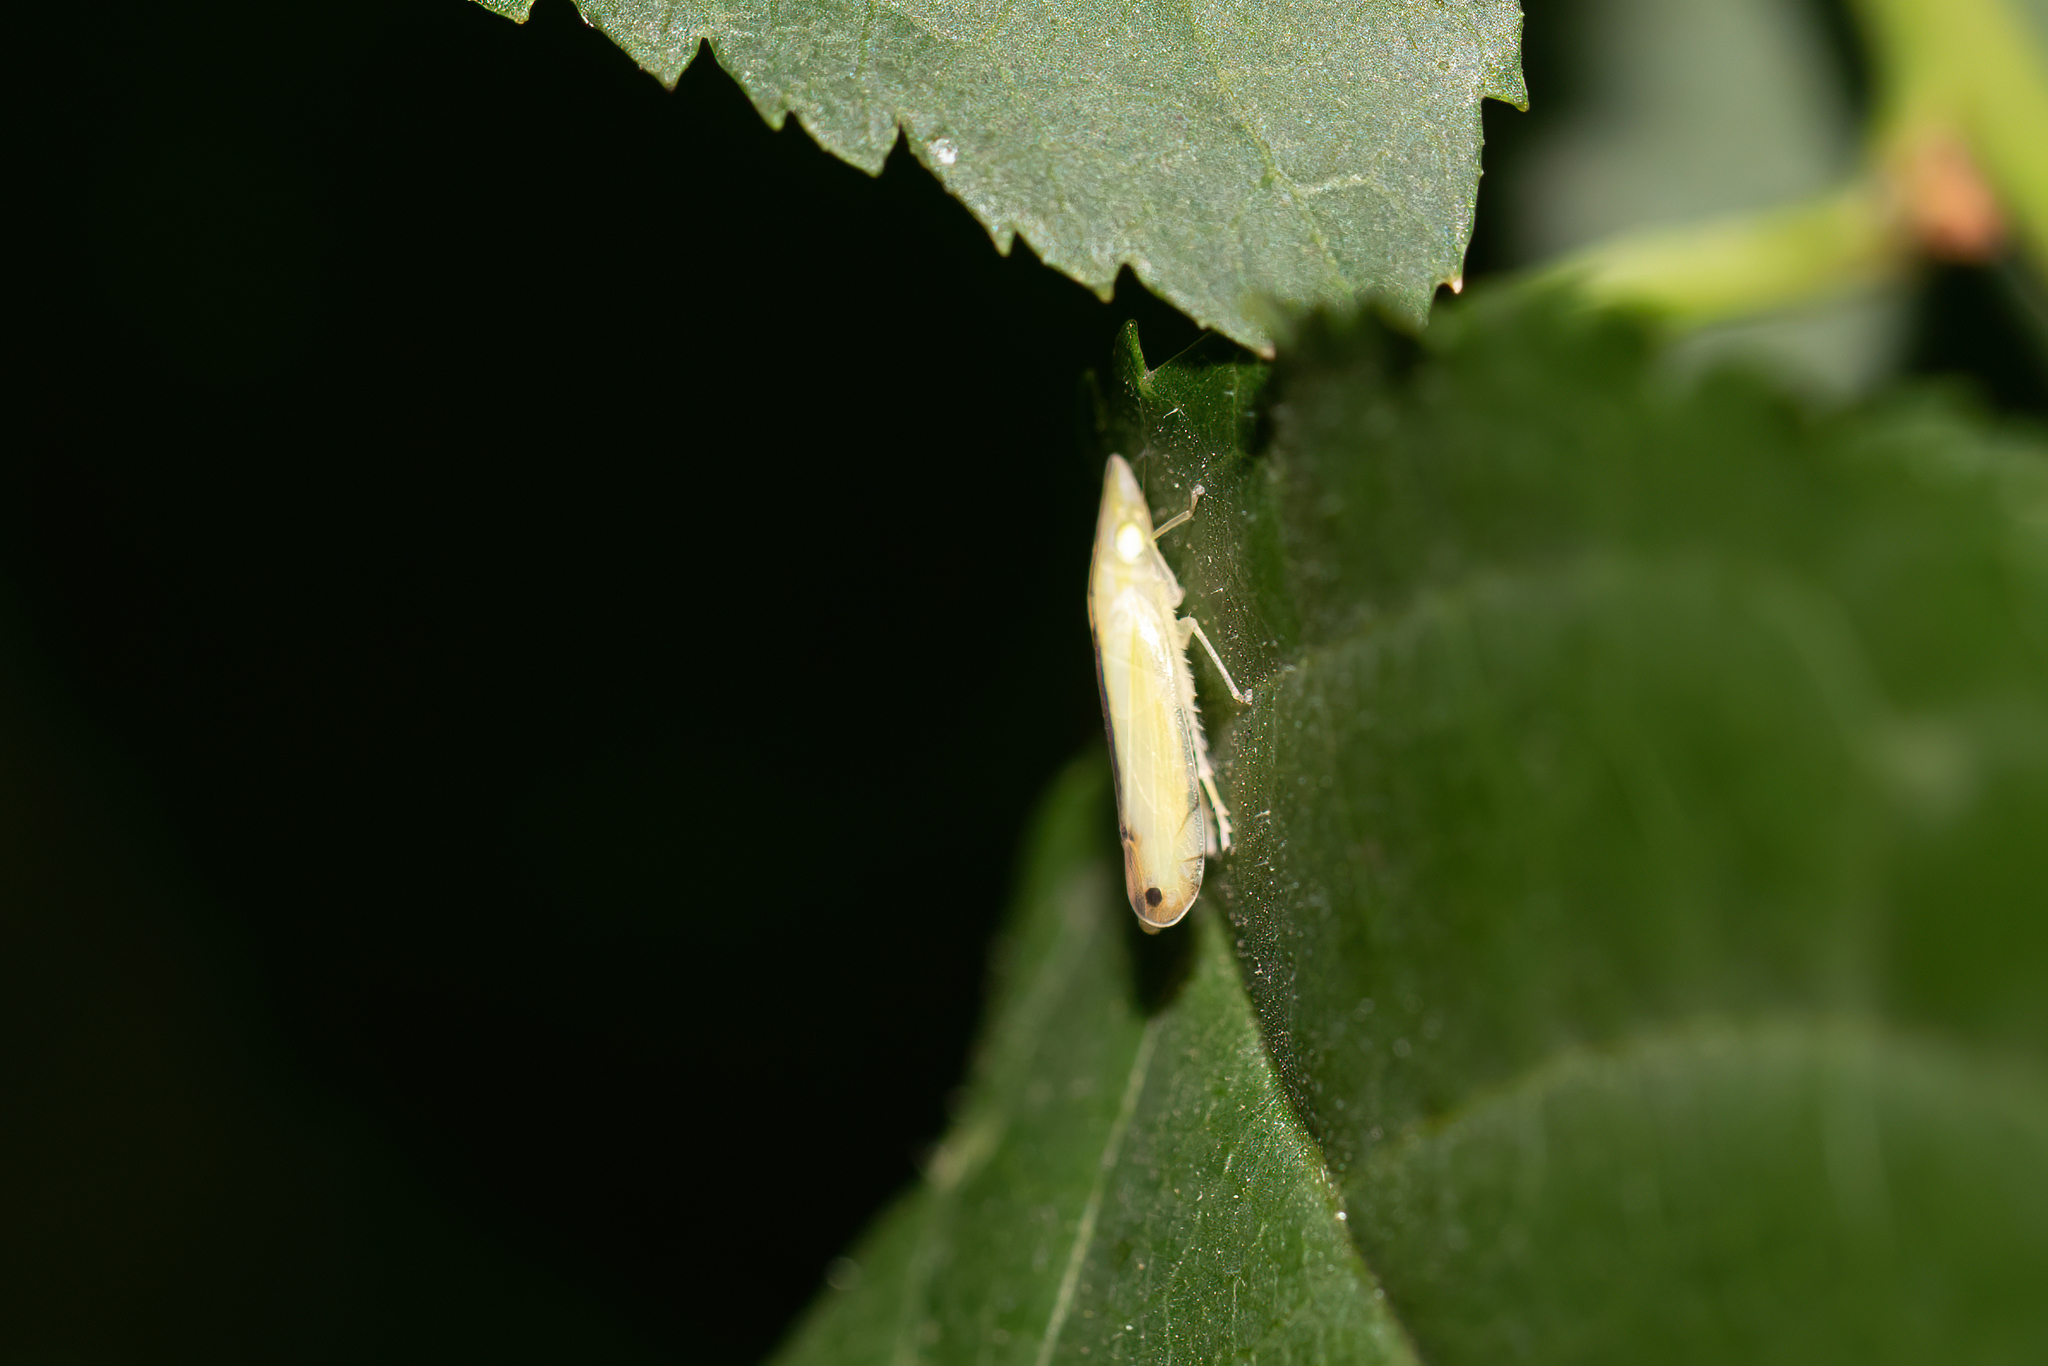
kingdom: Animalia
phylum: Arthropoda
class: Insecta
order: Hemiptera
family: Cicadellidae
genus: Sophonia
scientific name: Sophonia orientalis
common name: Two-spotted leafhopper
